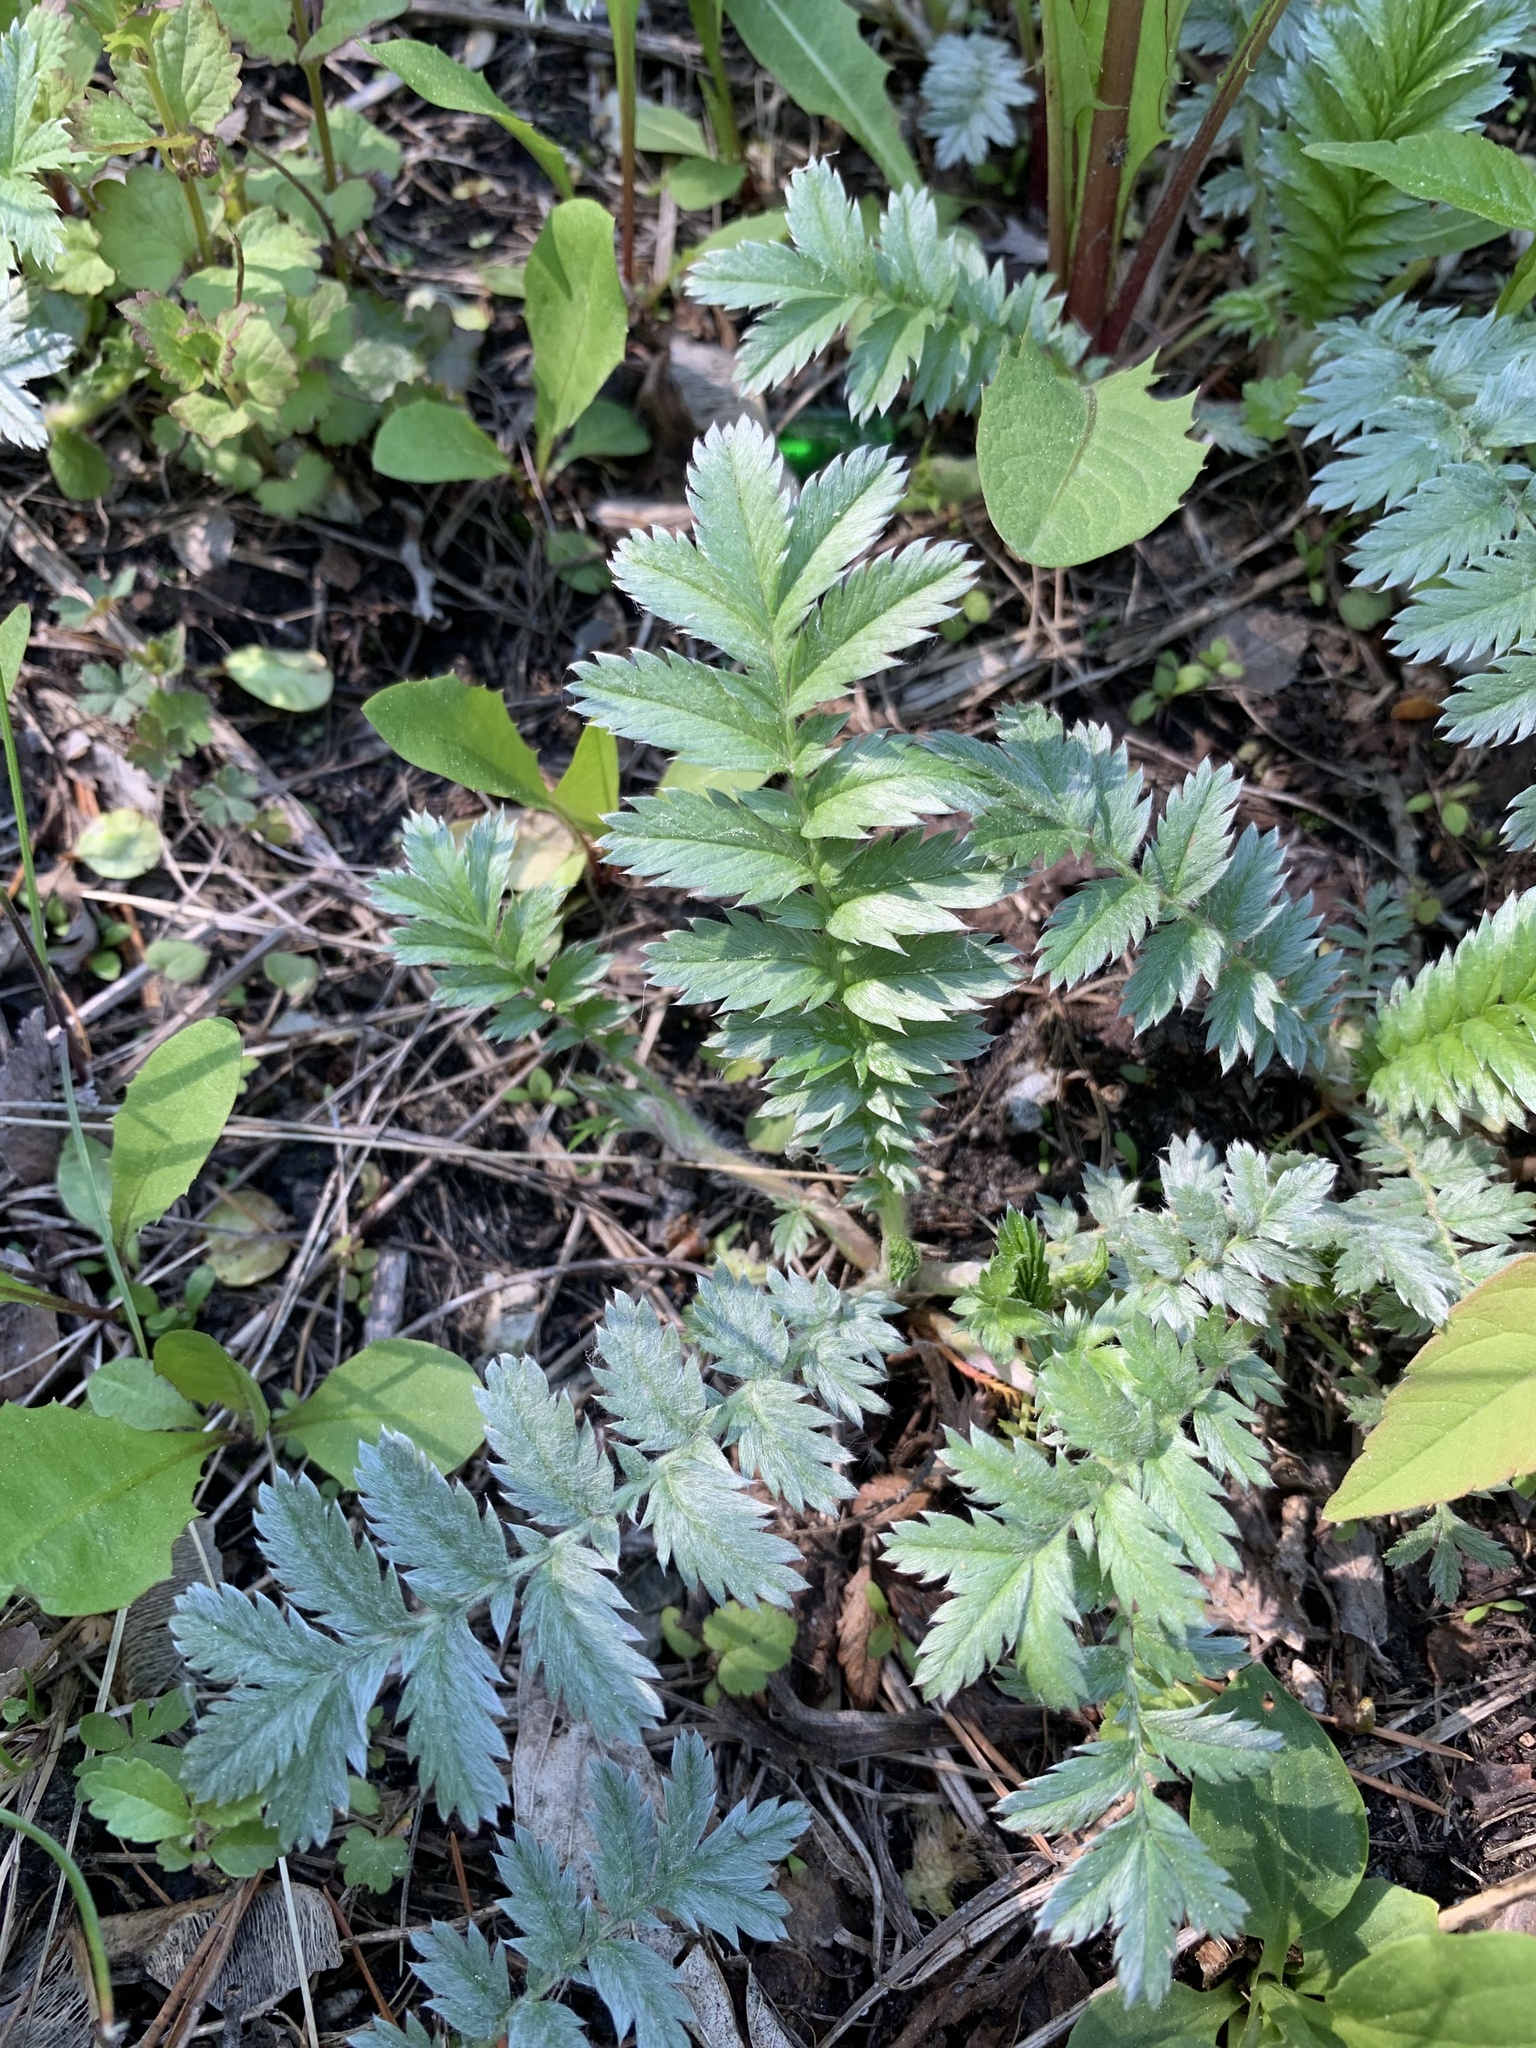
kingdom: Plantae
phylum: Tracheophyta
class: Magnoliopsida
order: Rosales
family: Rosaceae
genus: Argentina
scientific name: Argentina anserina
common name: Common silverweed
